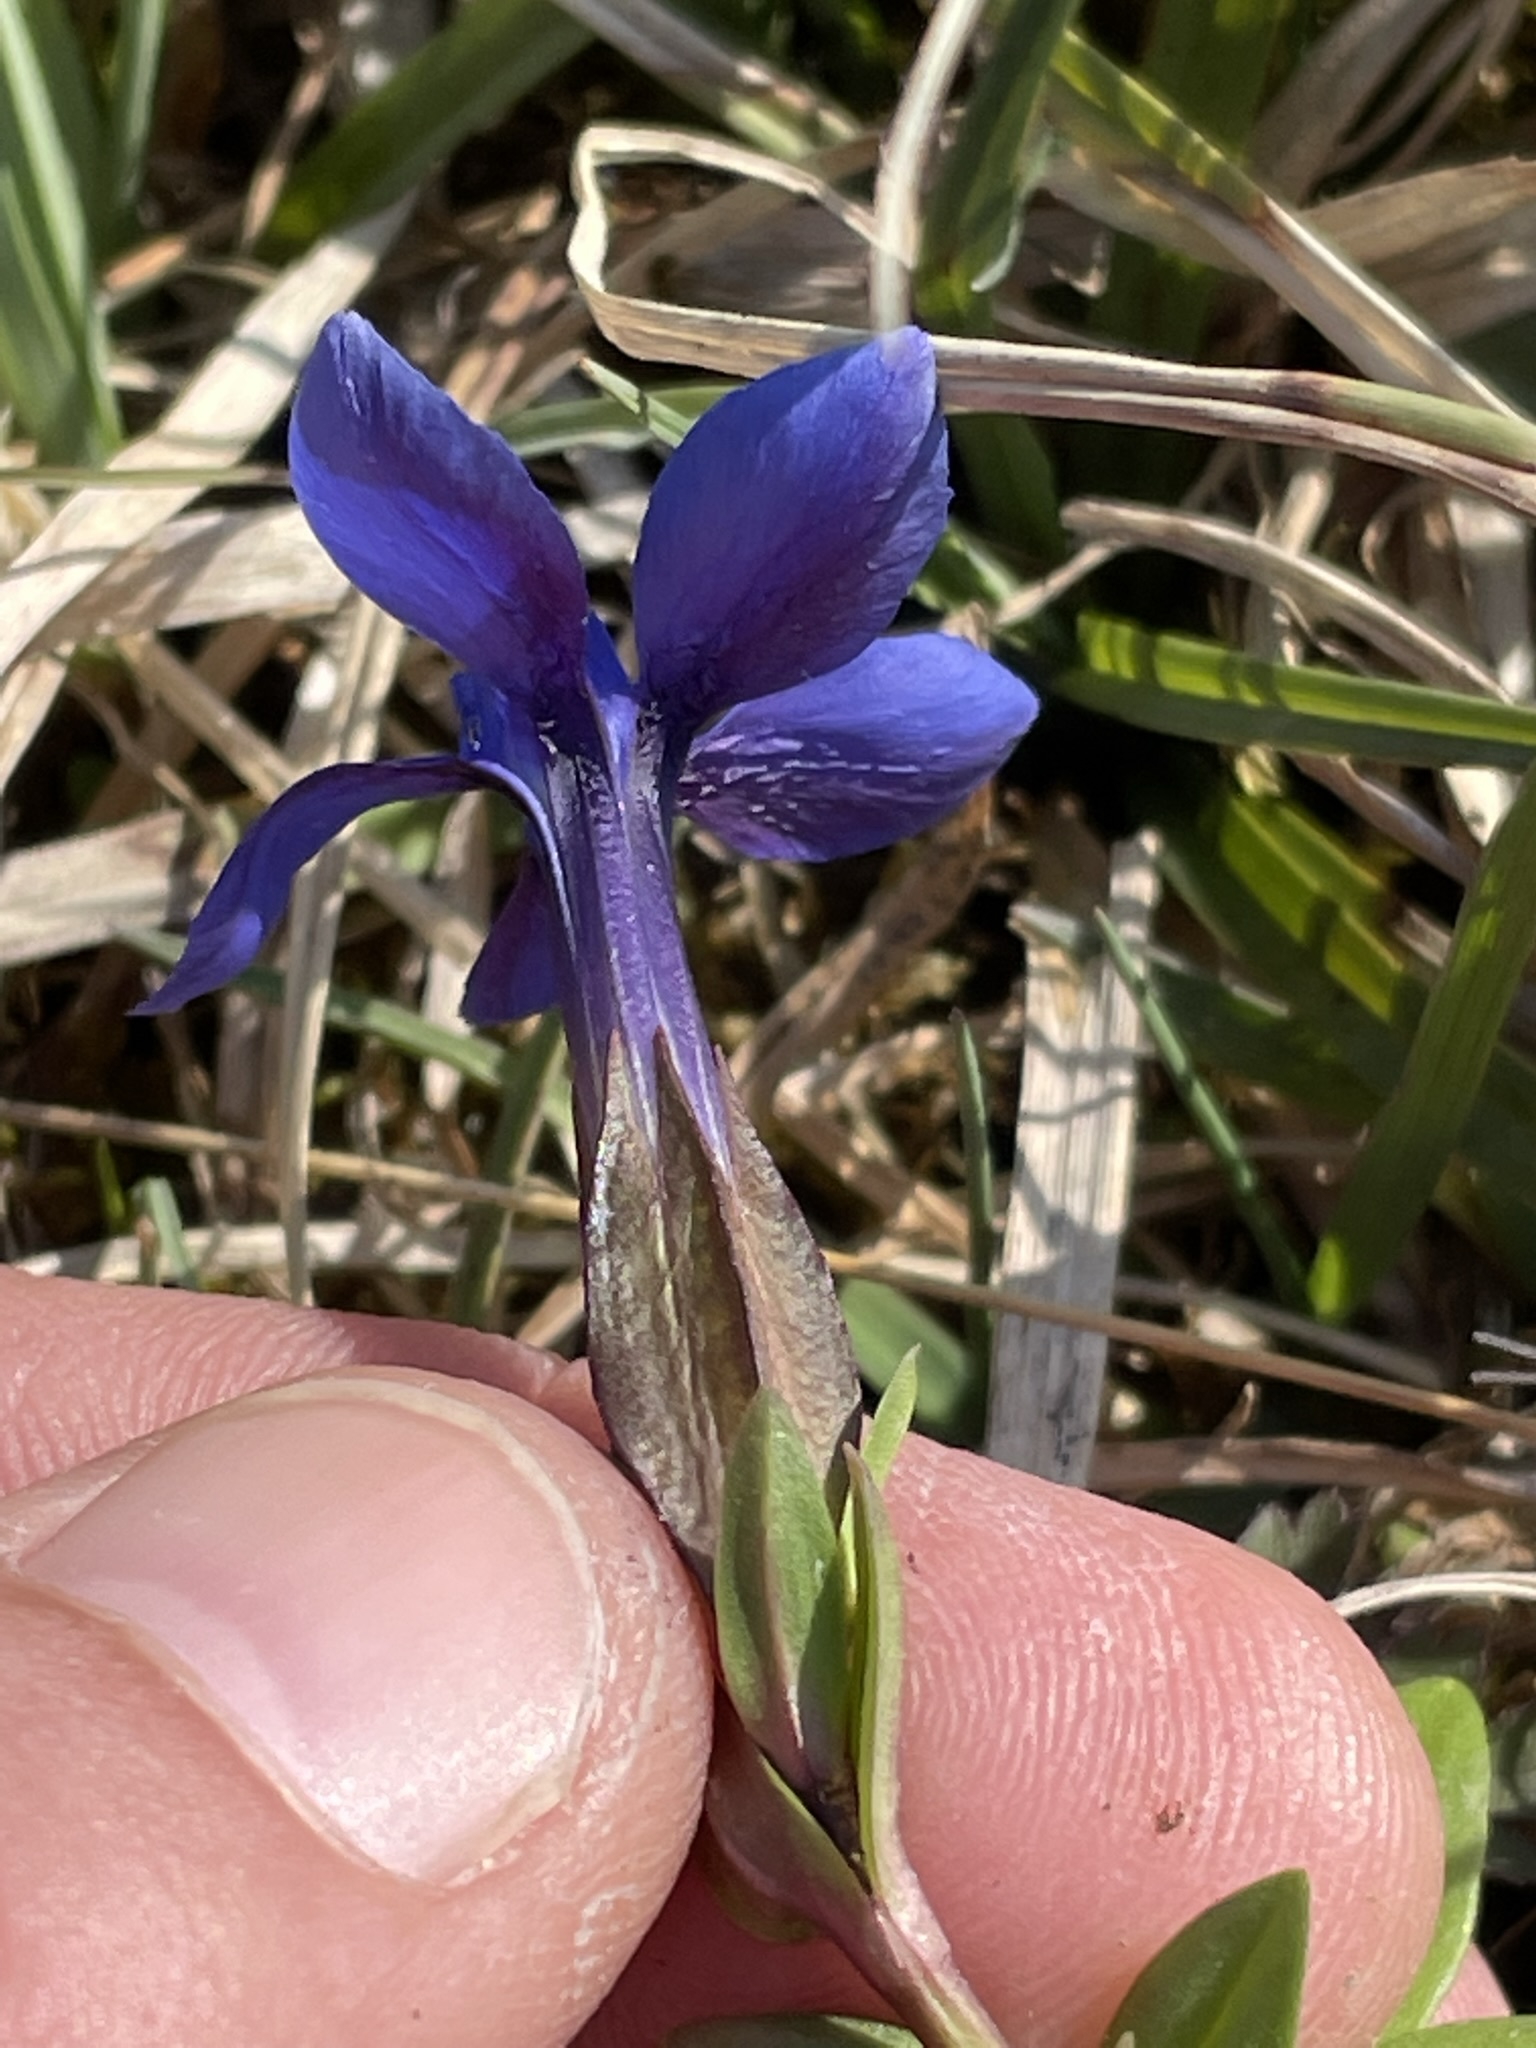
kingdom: Plantae
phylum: Tracheophyta
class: Magnoliopsida
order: Gentianales
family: Gentianaceae
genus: Gentiana
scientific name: Gentiana verna
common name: Spring gentian
